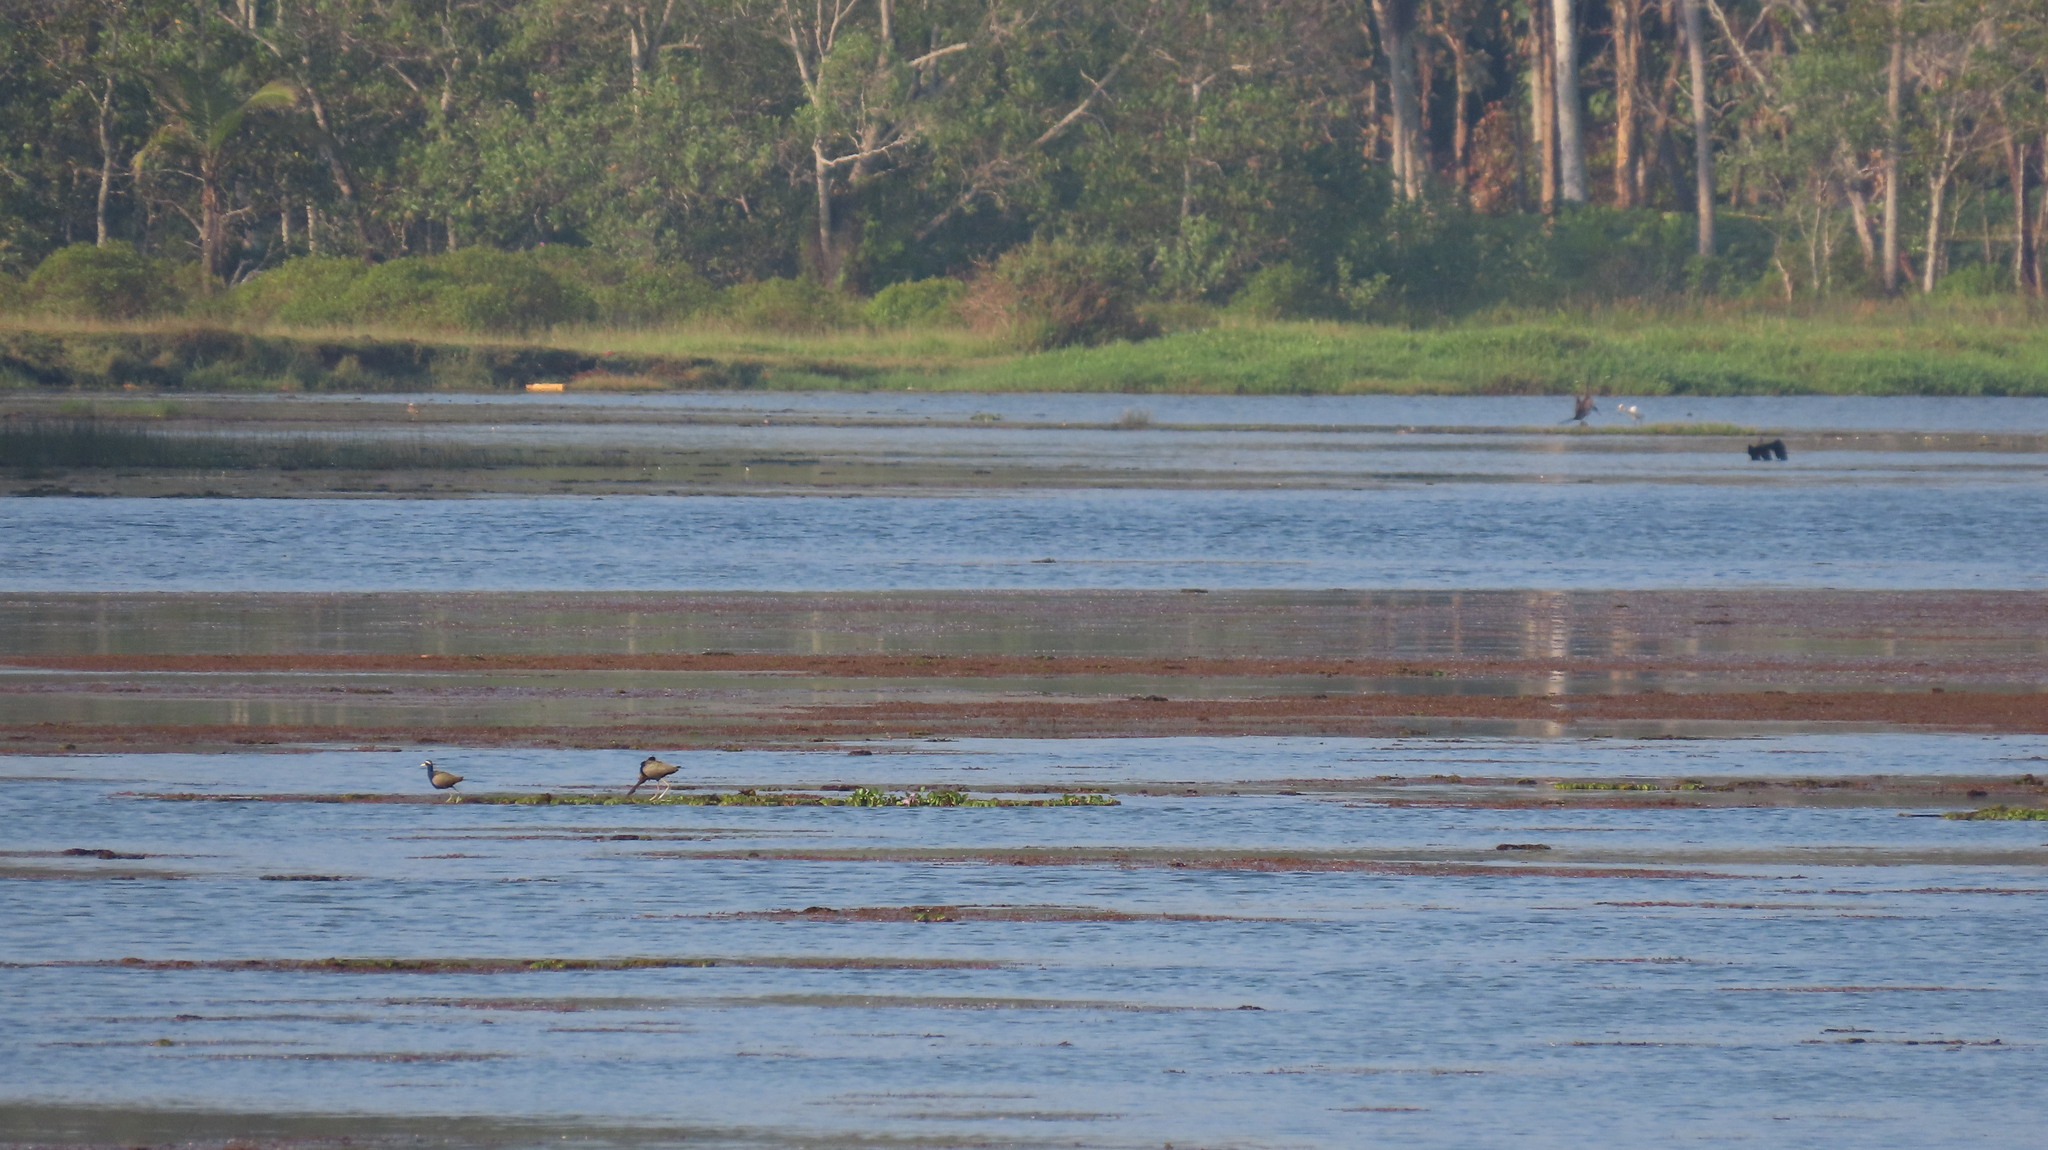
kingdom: Animalia
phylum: Chordata
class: Aves
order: Charadriiformes
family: Jacanidae
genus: Metopidius
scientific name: Metopidius indicus
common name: Bronze-winged jacana
